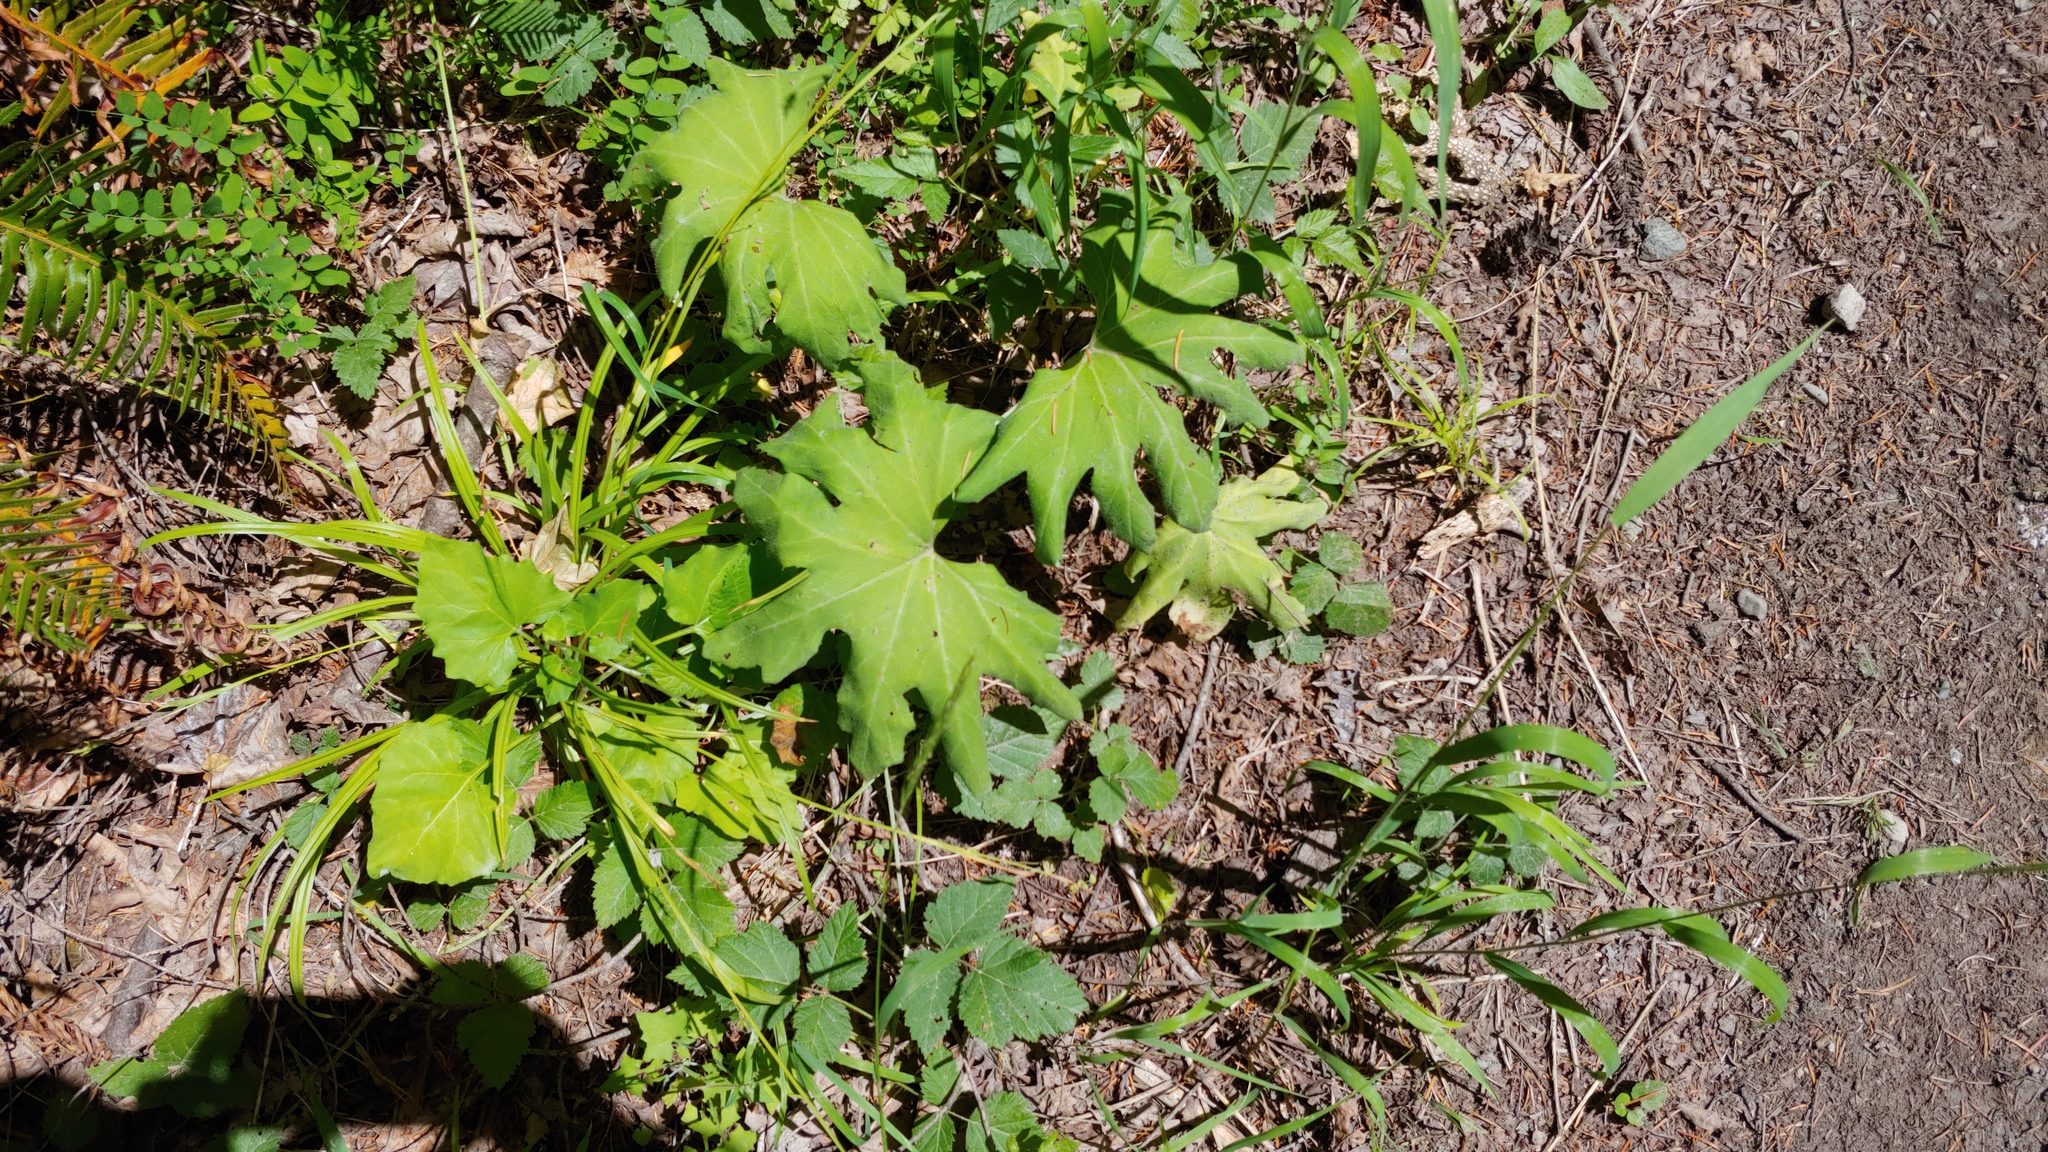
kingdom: Plantae
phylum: Tracheophyta
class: Magnoliopsida
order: Asterales
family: Asteraceae
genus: Petasites
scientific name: Petasites frigidus
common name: Arctic butterbur
